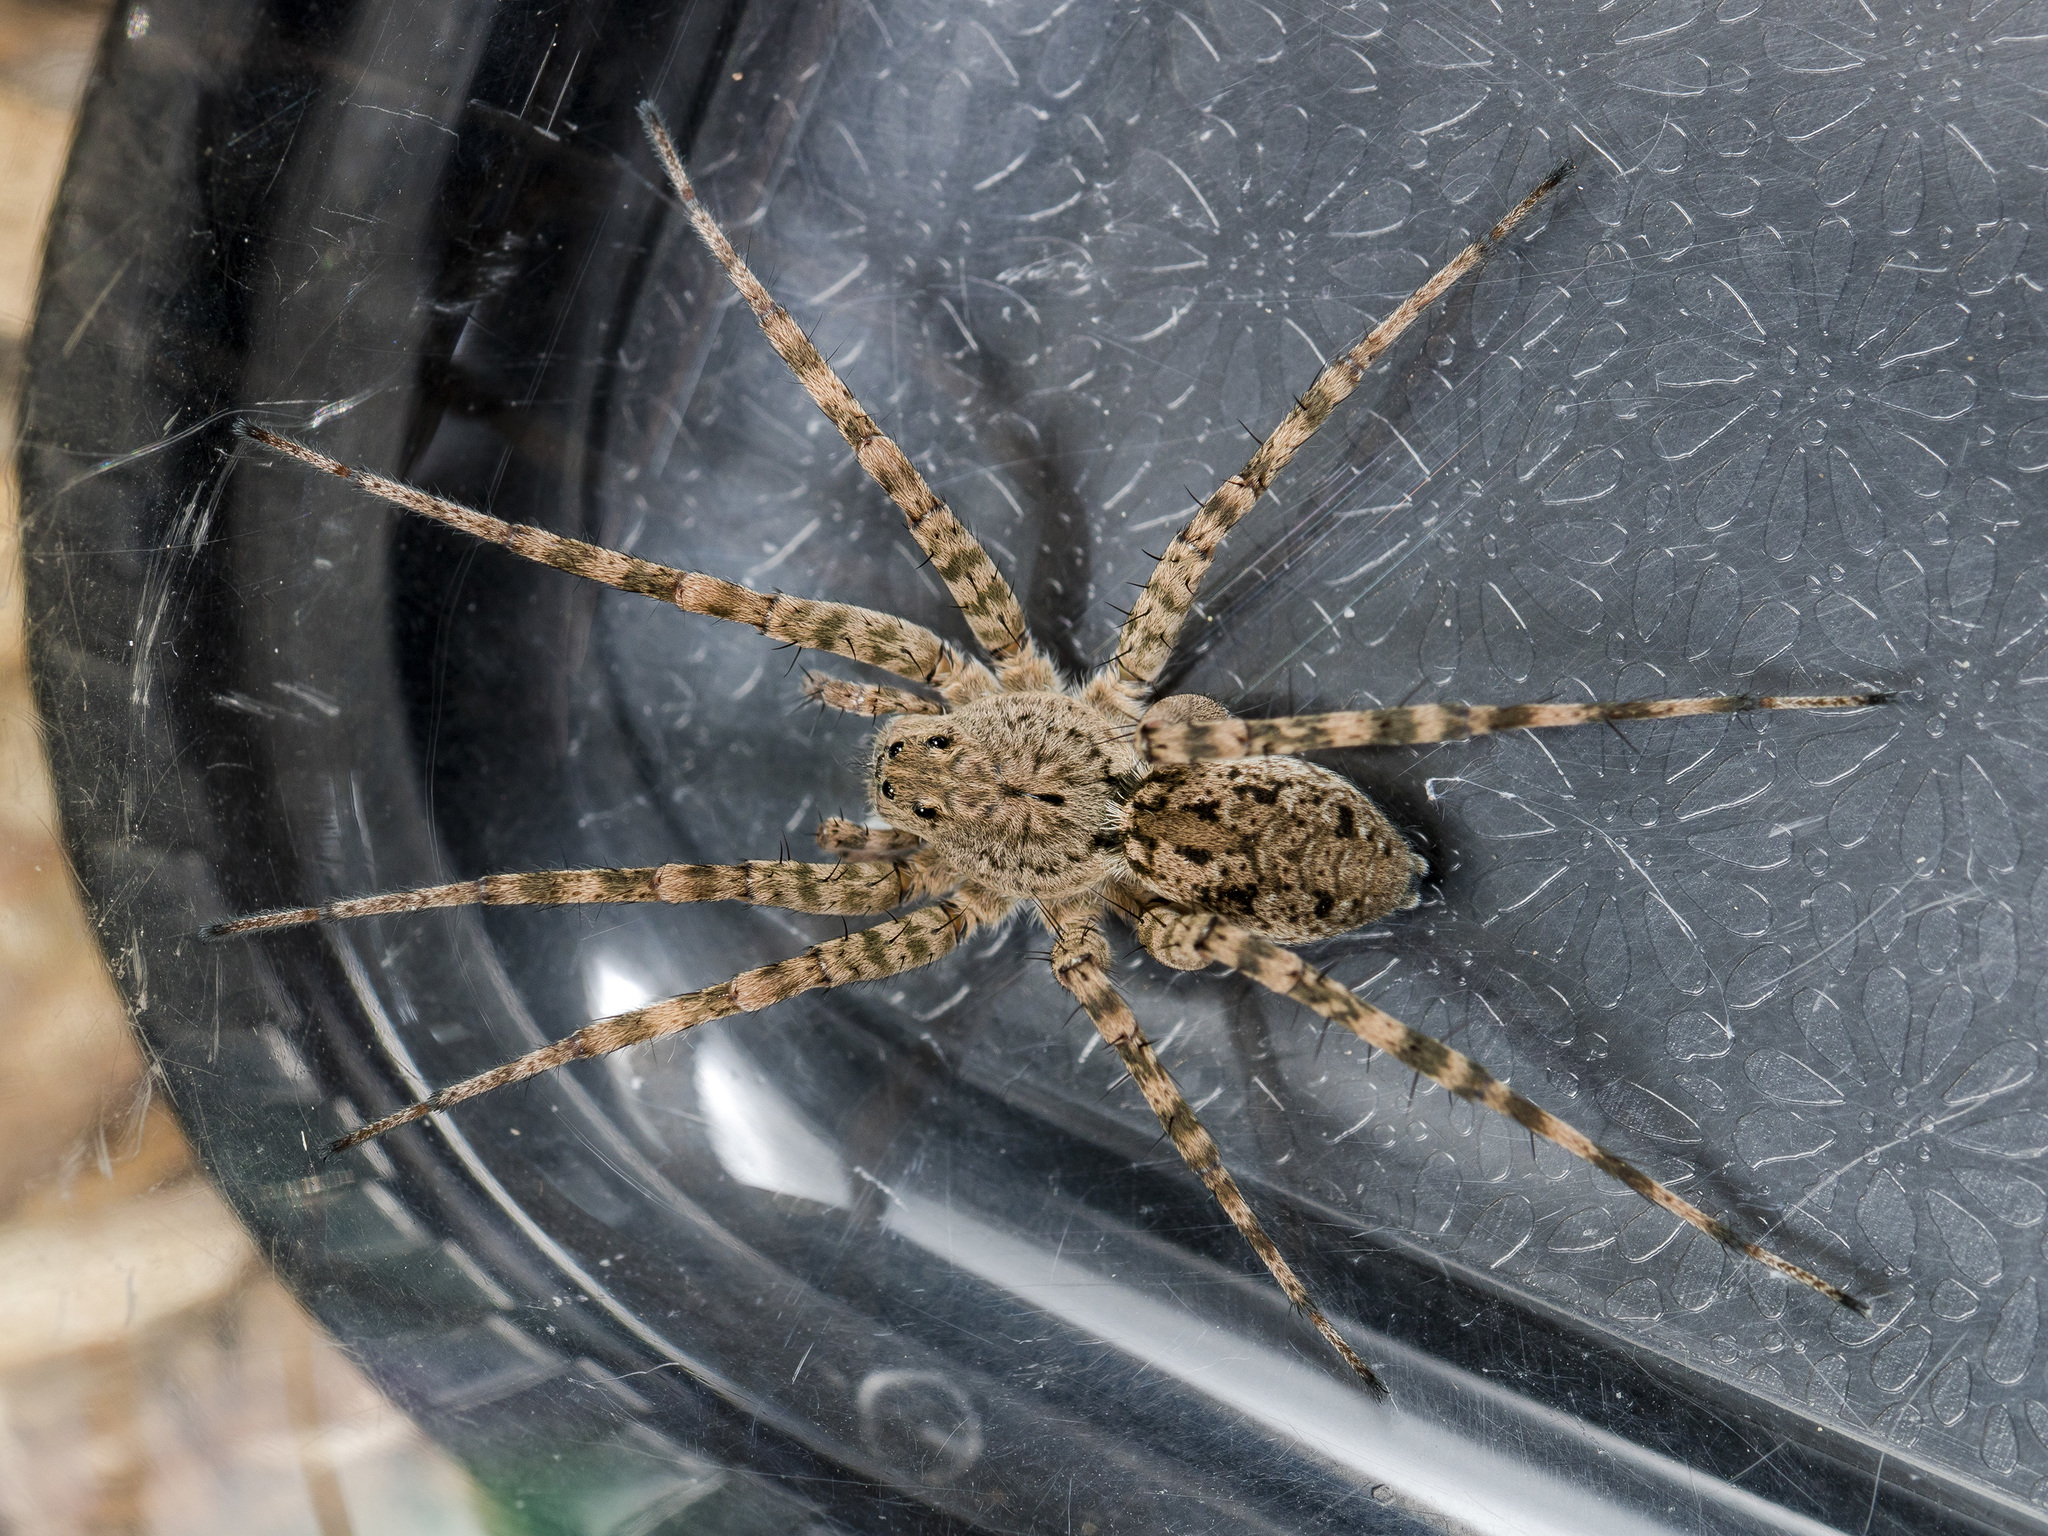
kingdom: Animalia
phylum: Arthropoda
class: Arachnida
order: Araneae
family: Lycosidae
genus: Pardosa
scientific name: Pardosa nebulosa
